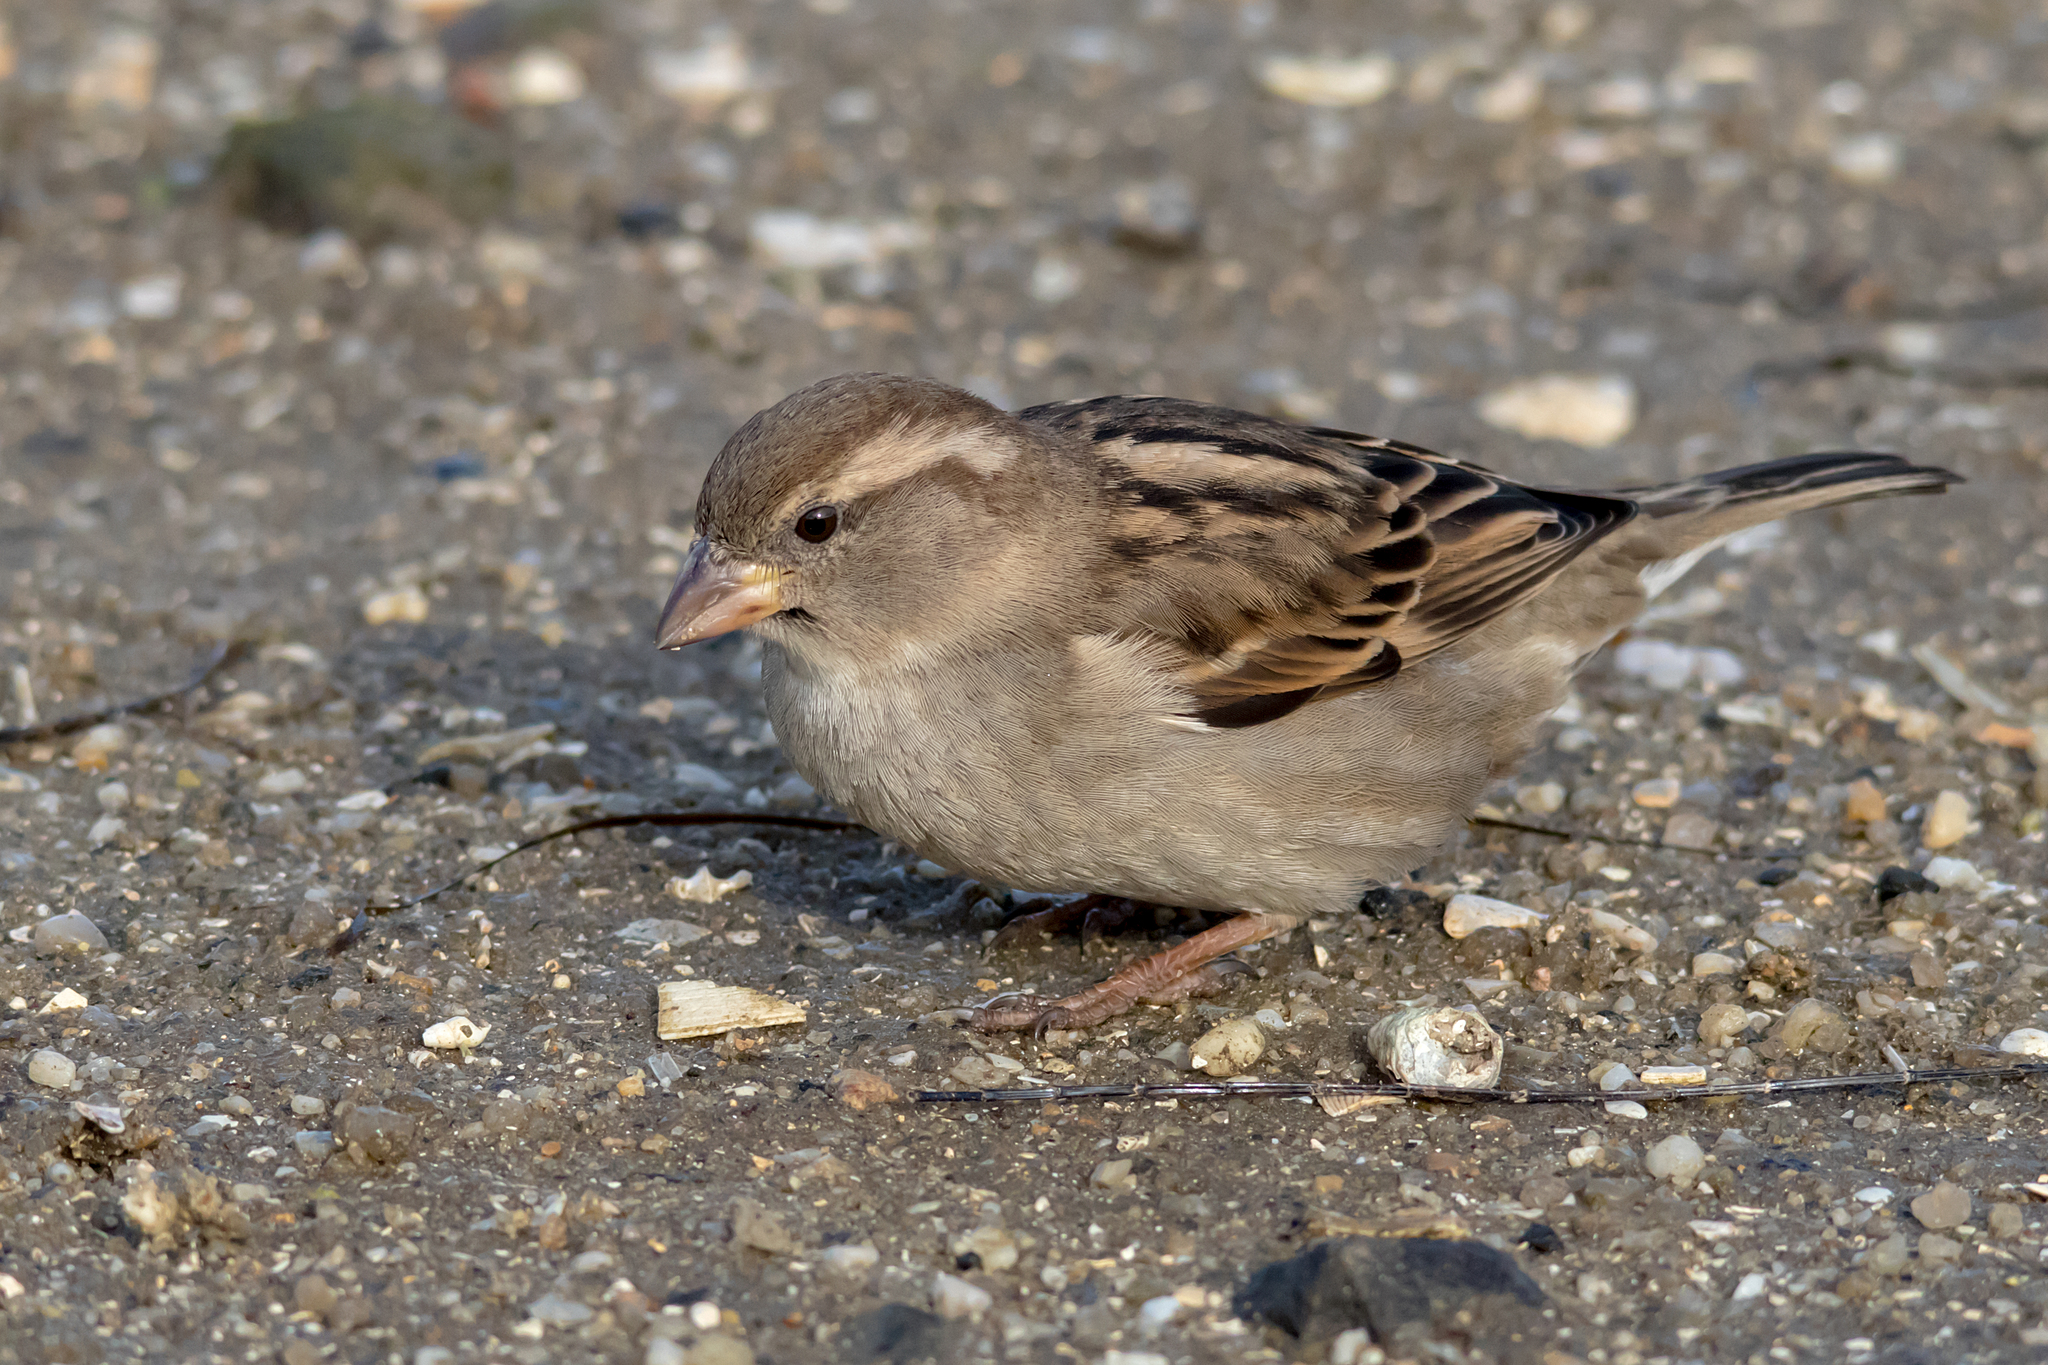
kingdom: Animalia
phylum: Chordata
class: Aves
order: Passeriformes
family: Passeridae
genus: Passer
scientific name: Passer domesticus
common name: House sparrow
